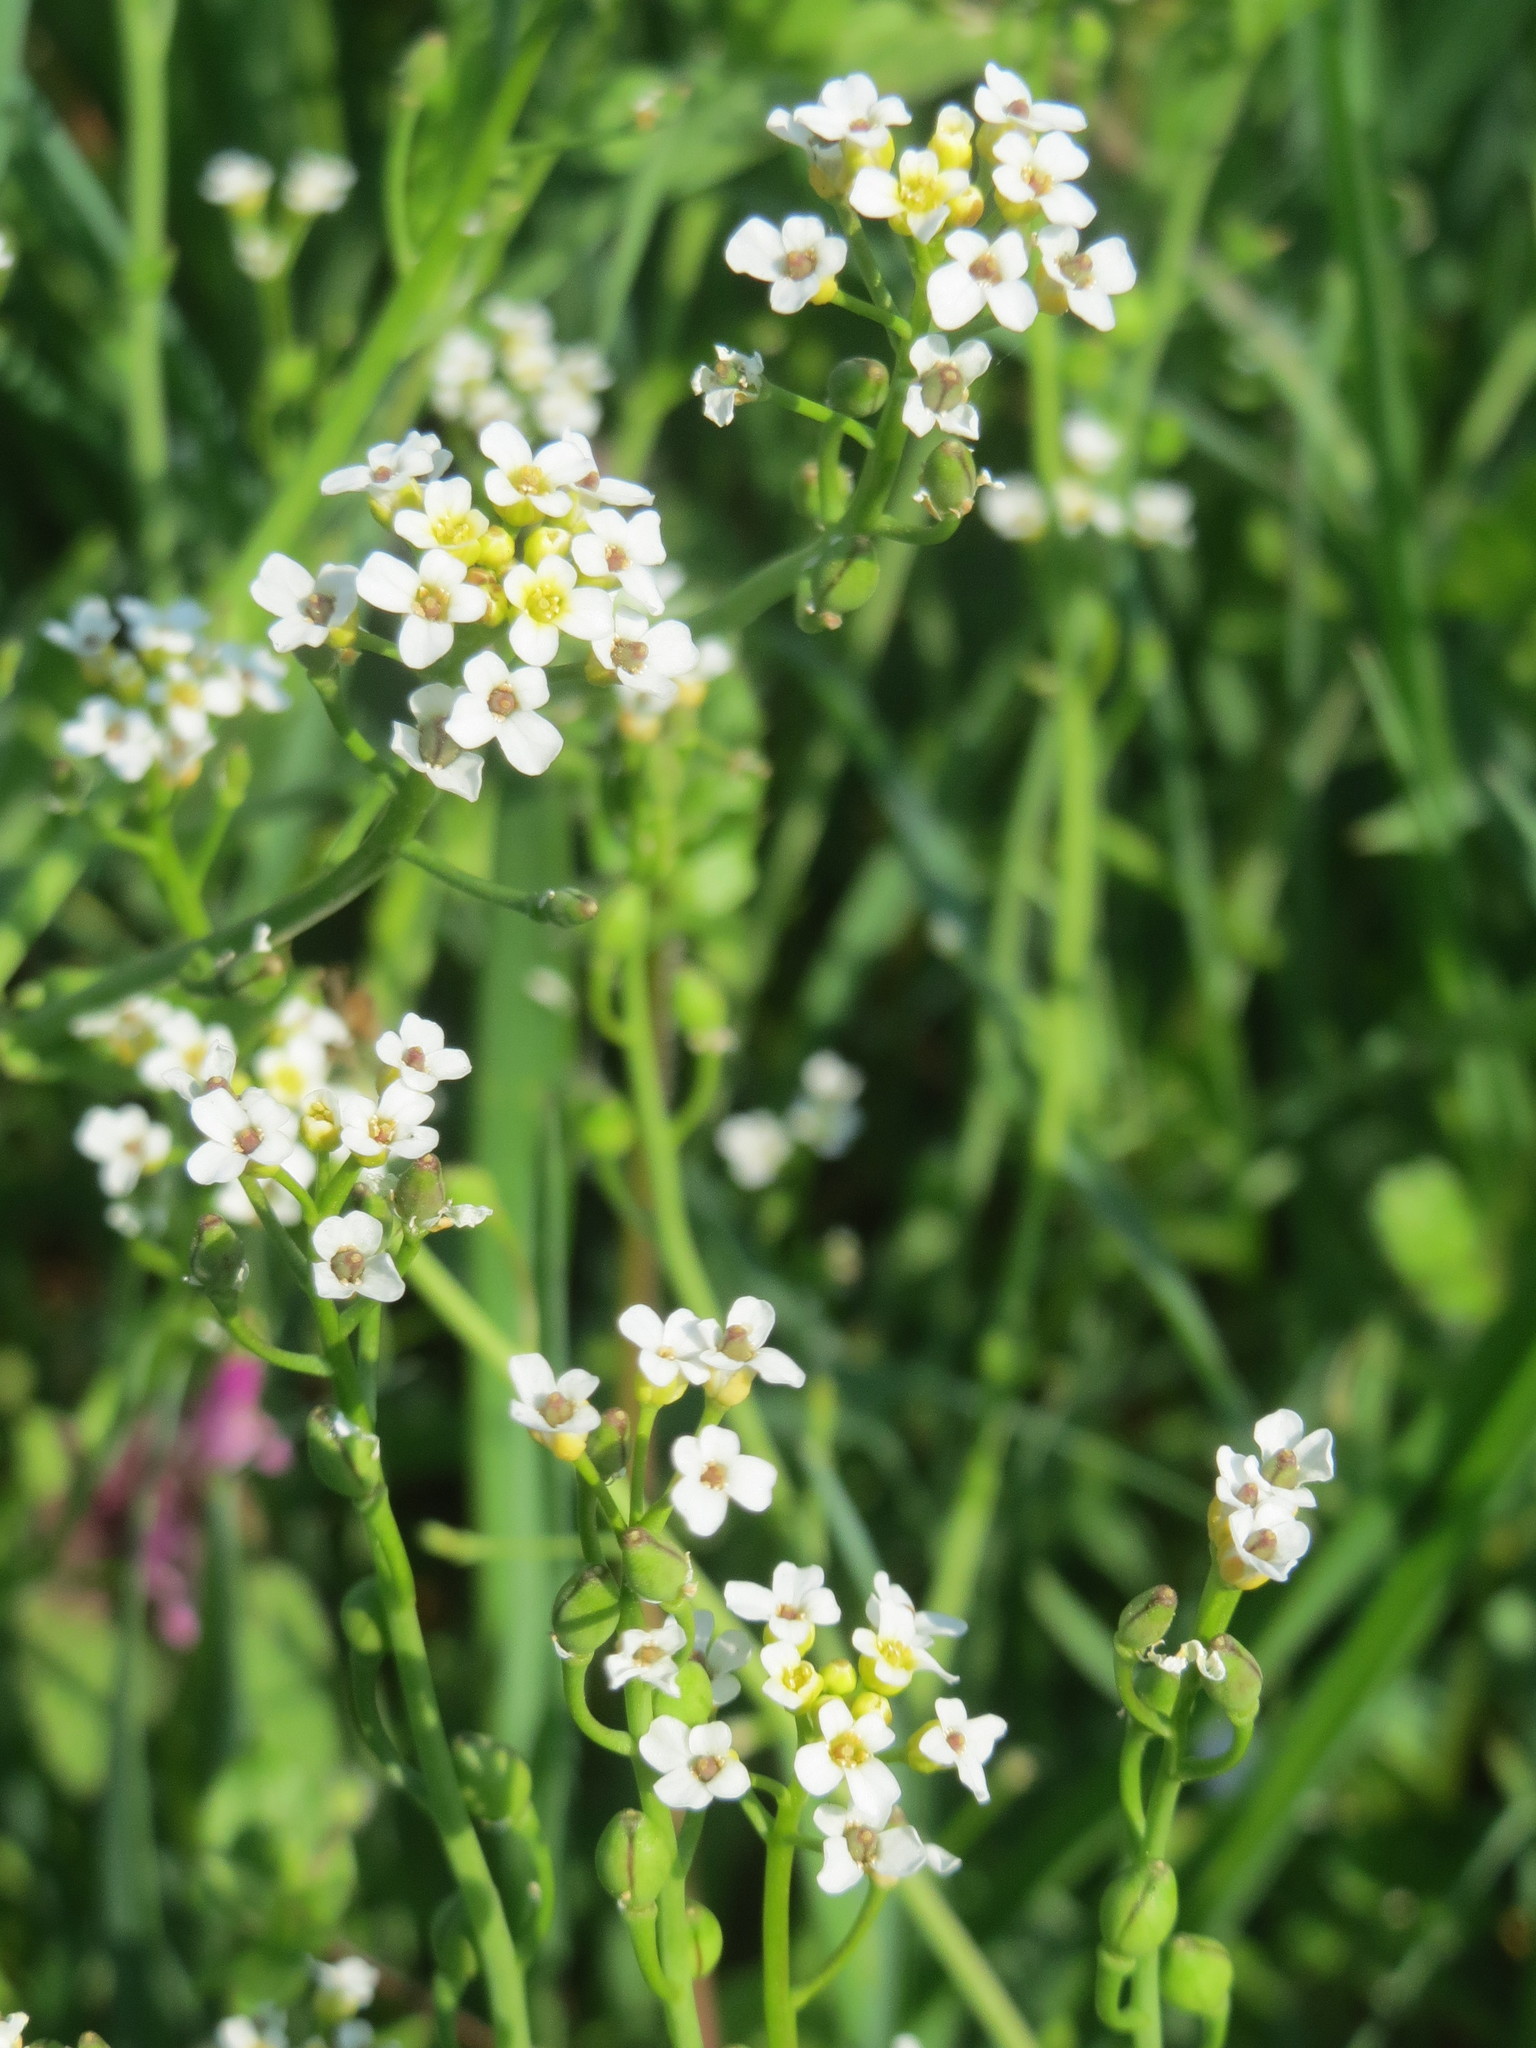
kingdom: Plantae
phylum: Tracheophyta
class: Magnoliopsida
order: Brassicales
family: Brassicaceae
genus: Calepina
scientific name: Calepina irregularis
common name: White ballmustard
